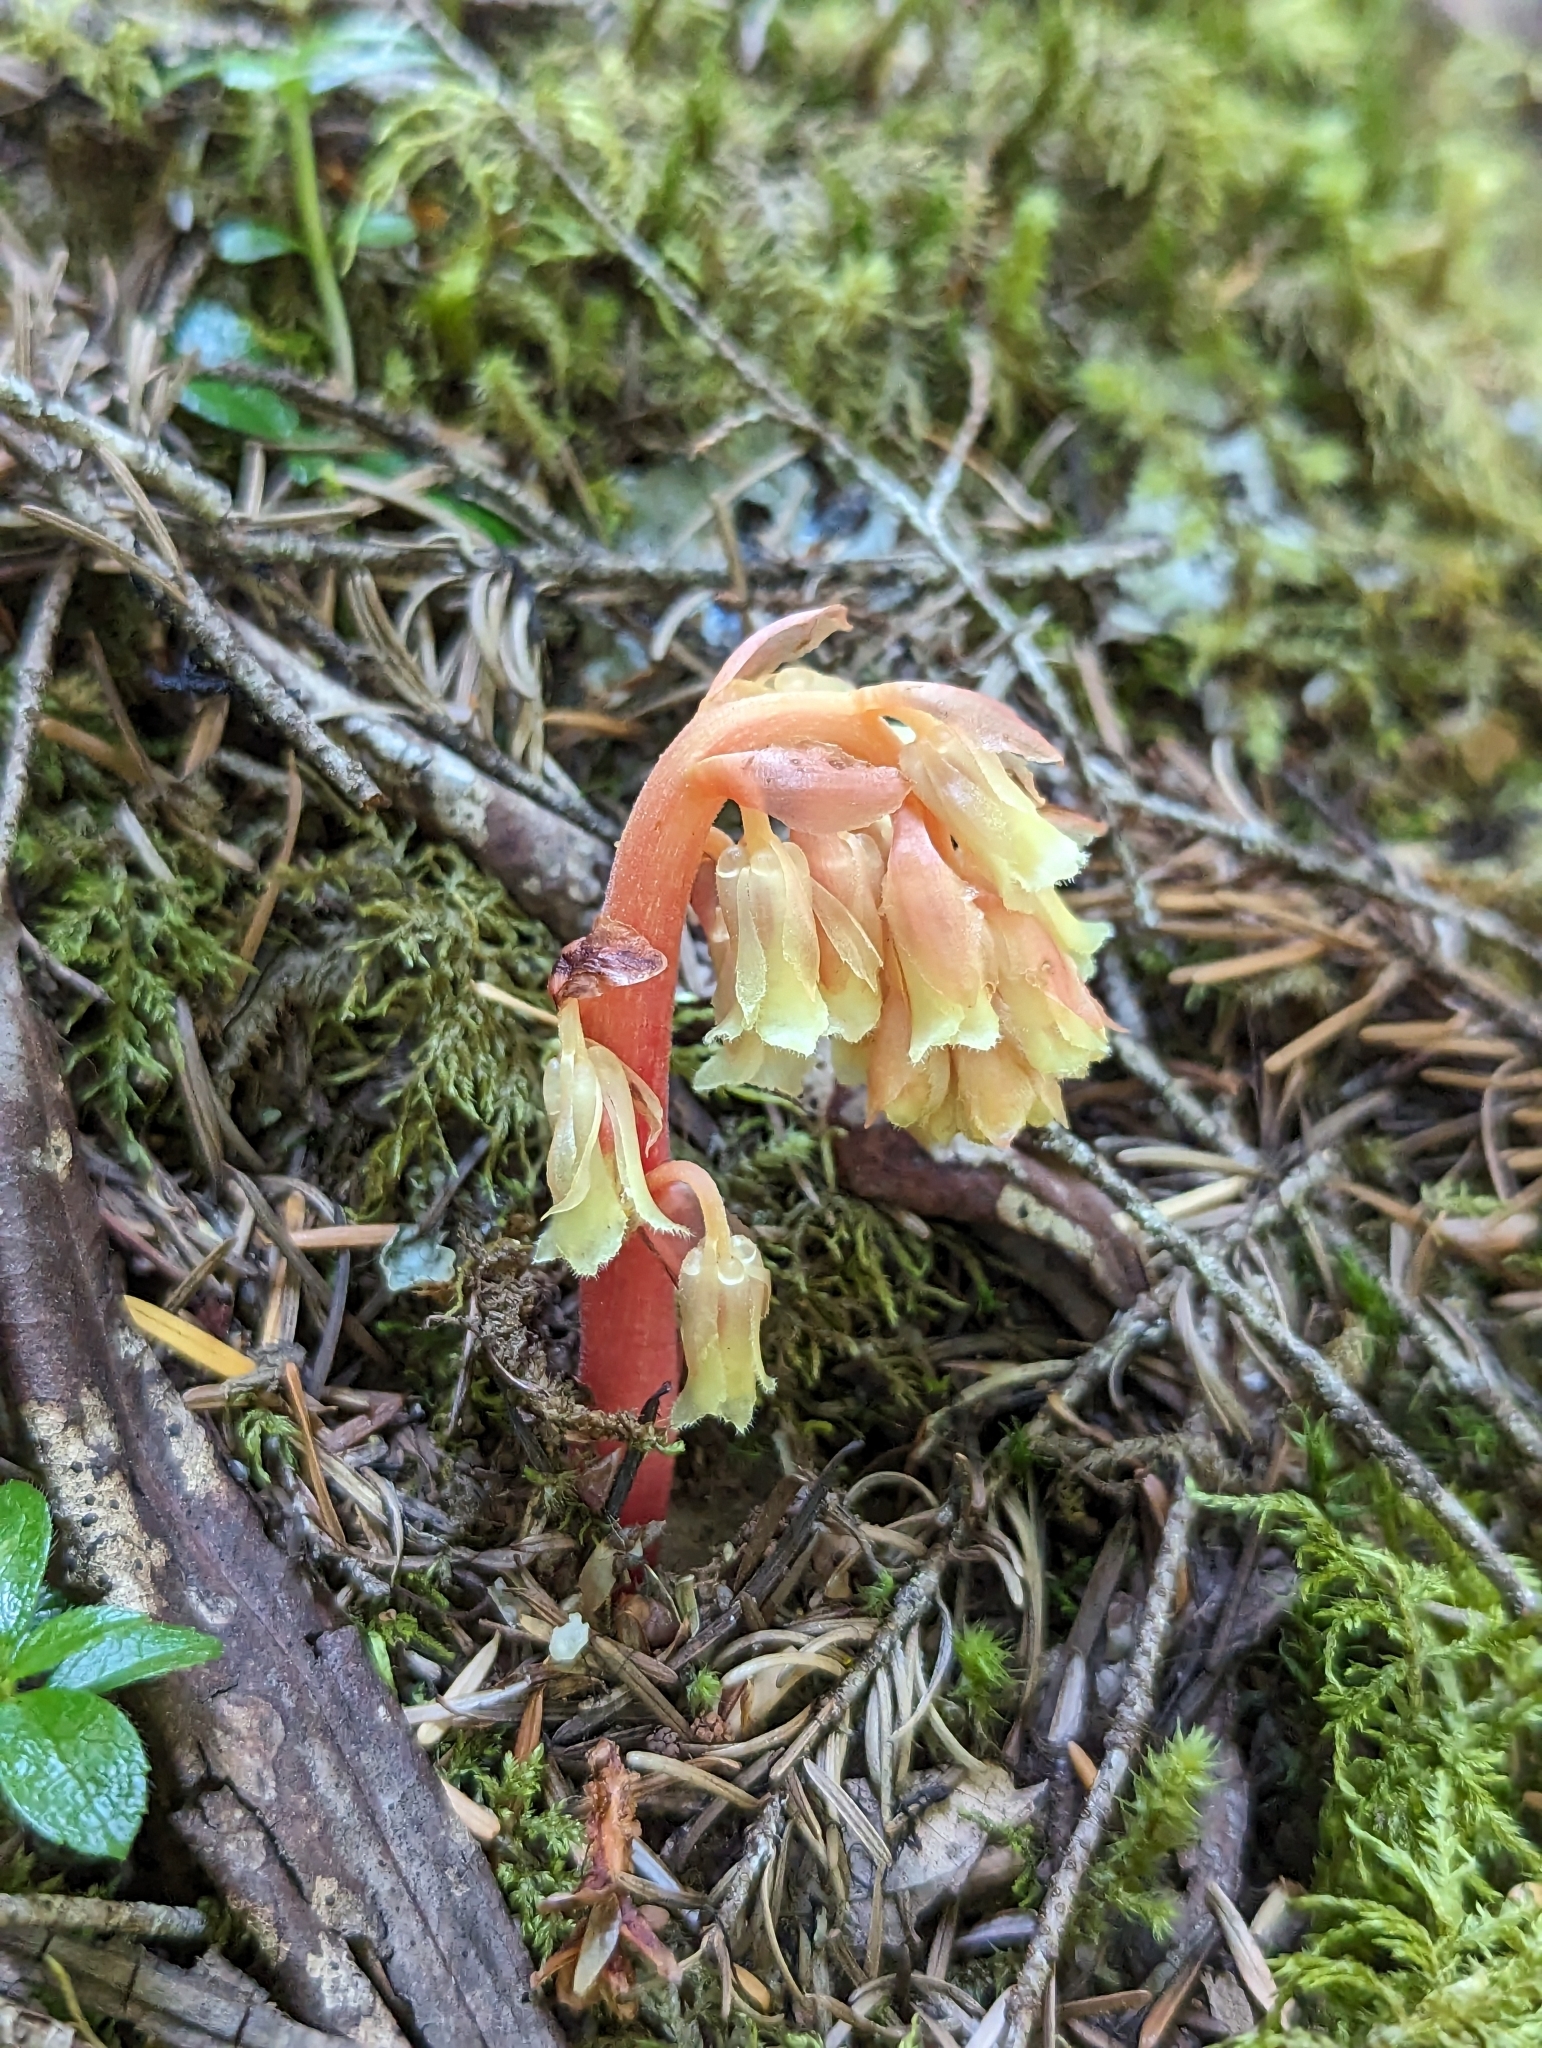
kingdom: Plantae
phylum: Tracheophyta
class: Magnoliopsida
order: Ericales
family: Ericaceae
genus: Hypopitys
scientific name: Hypopitys monotropa
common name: Yellow bird's-nest
